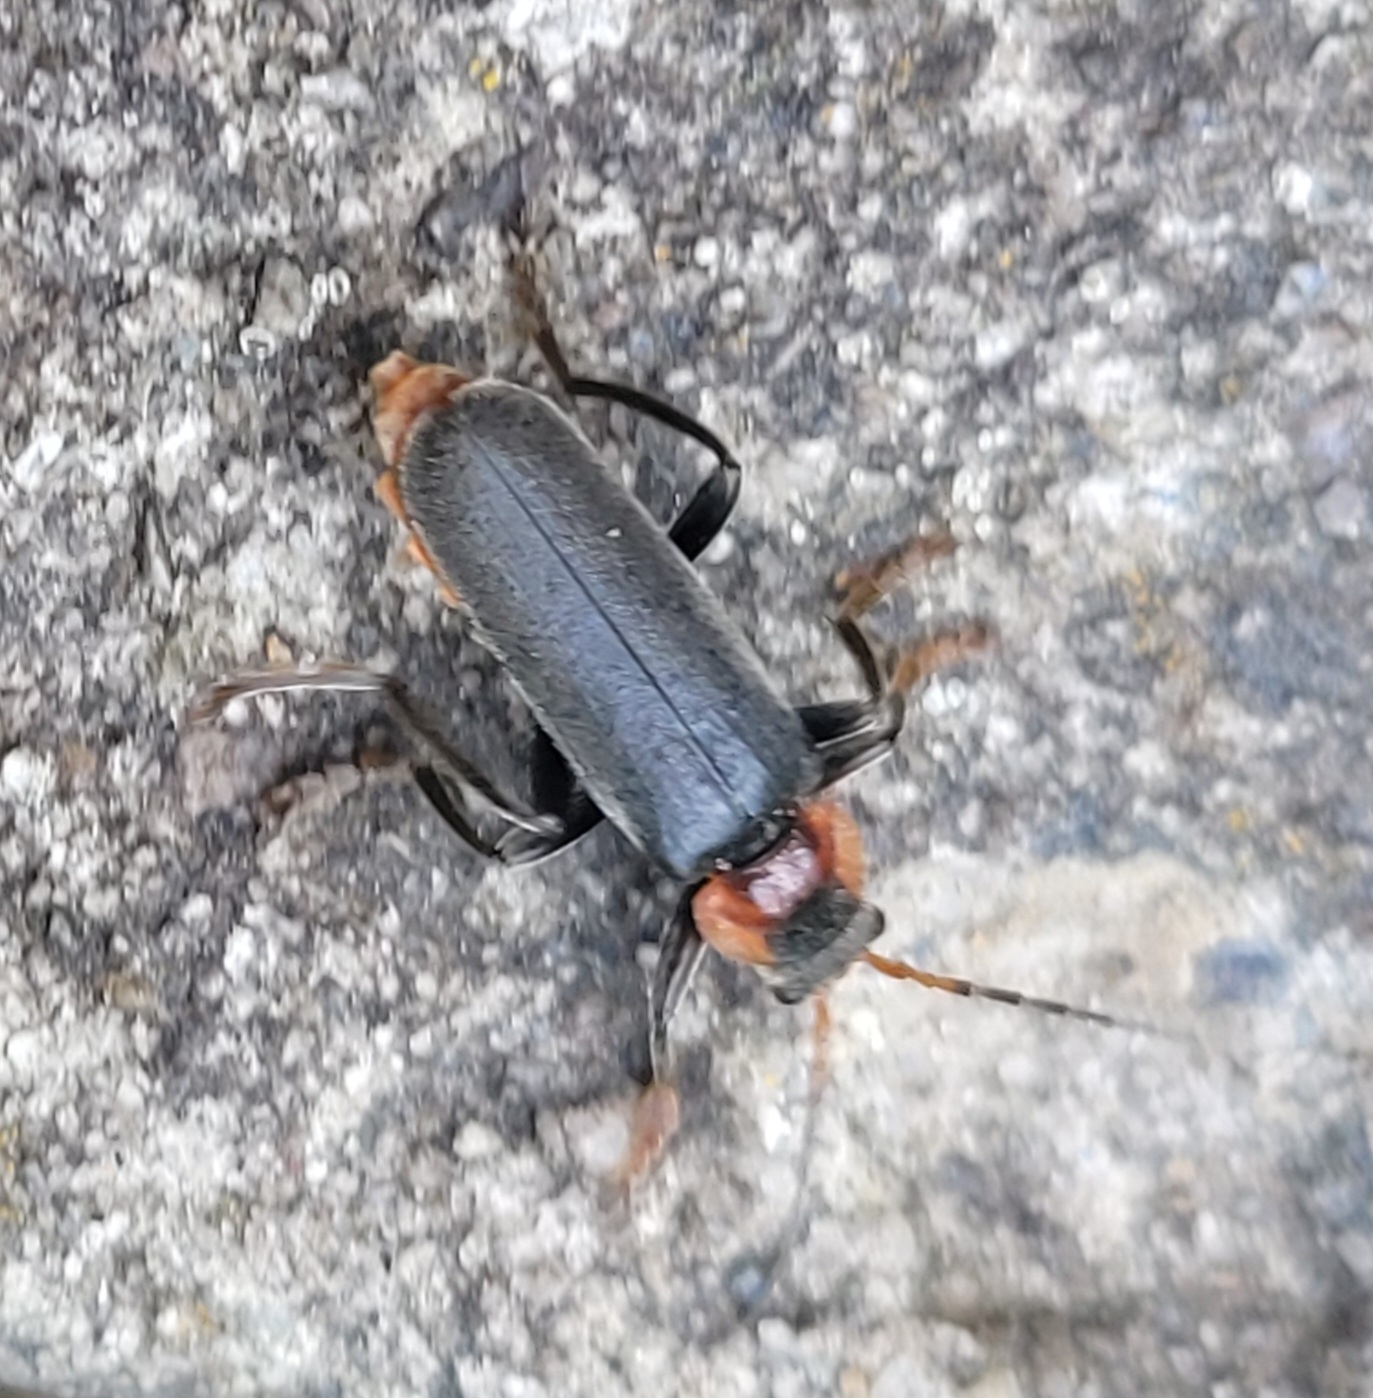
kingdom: Animalia
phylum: Arthropoda
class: Insecta
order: Coleoptera
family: Cantharidae
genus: Cantharis
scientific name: Cantharis fusca
